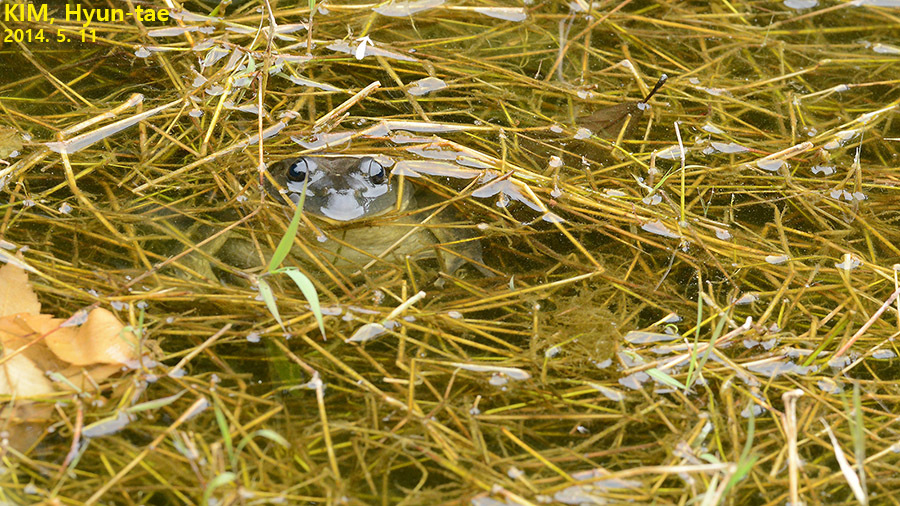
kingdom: Animalia
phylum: Chordata
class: Amphibia
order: Anura
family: Ranidae
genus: Lithobates
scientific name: Lithobates catesbeianus
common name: American bullfrog
